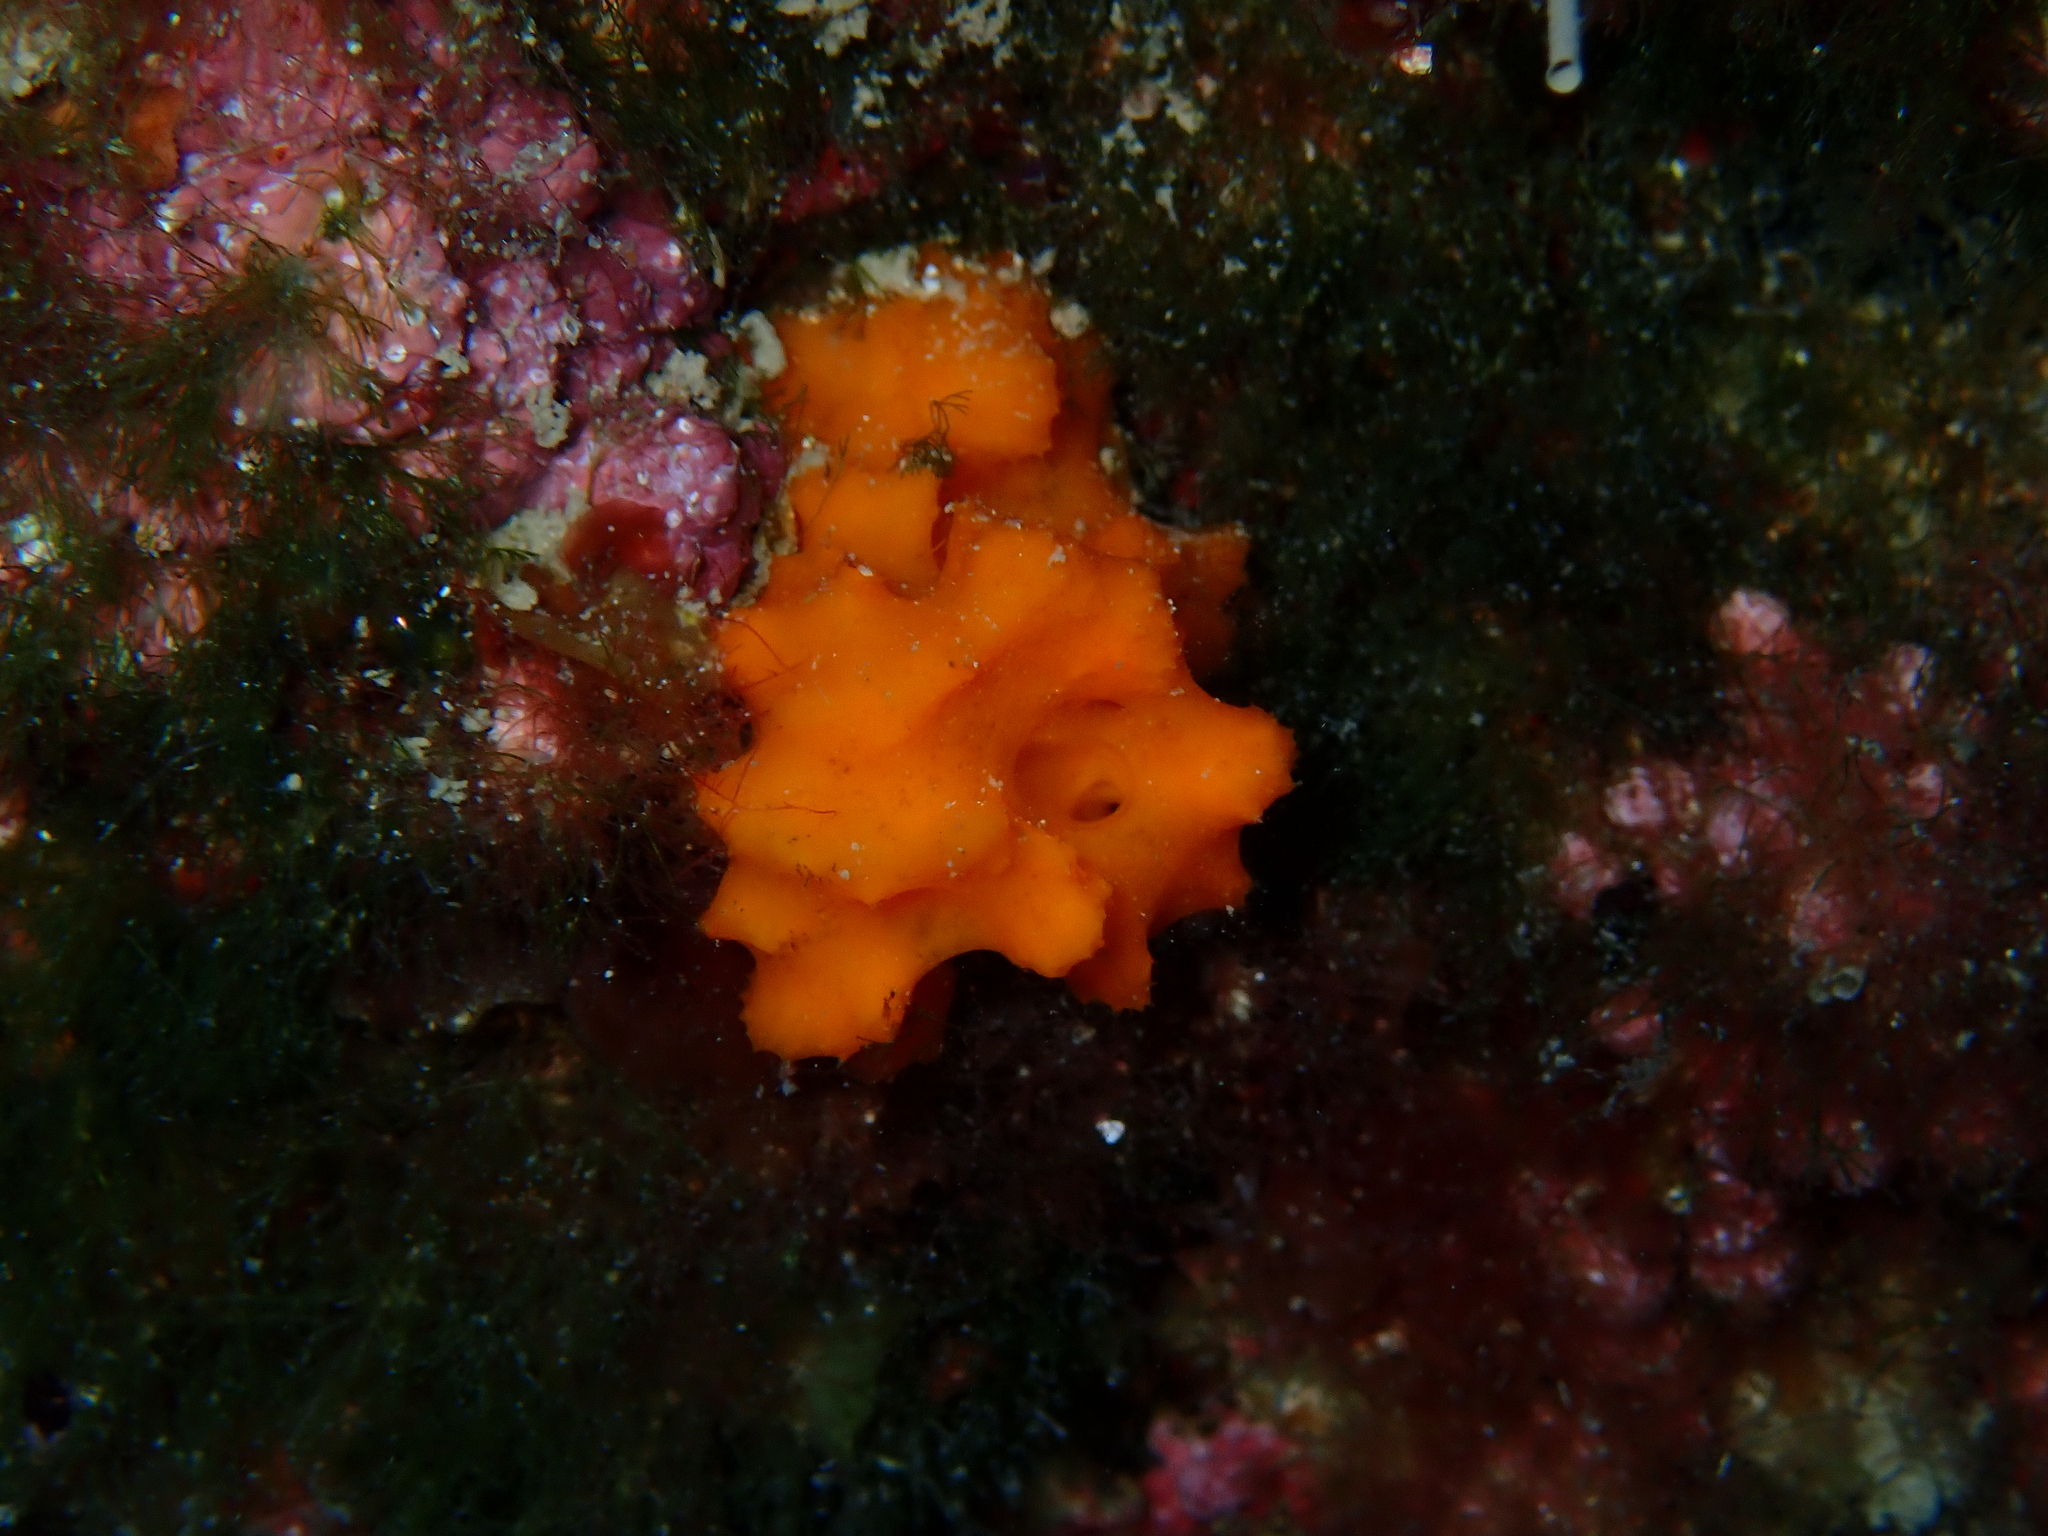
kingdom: Animalia
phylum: Porifera
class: Demospongiae
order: Bubarida
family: Dictyonellidae
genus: Acanthella
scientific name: Acanthella acuta
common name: Cactus sponge
